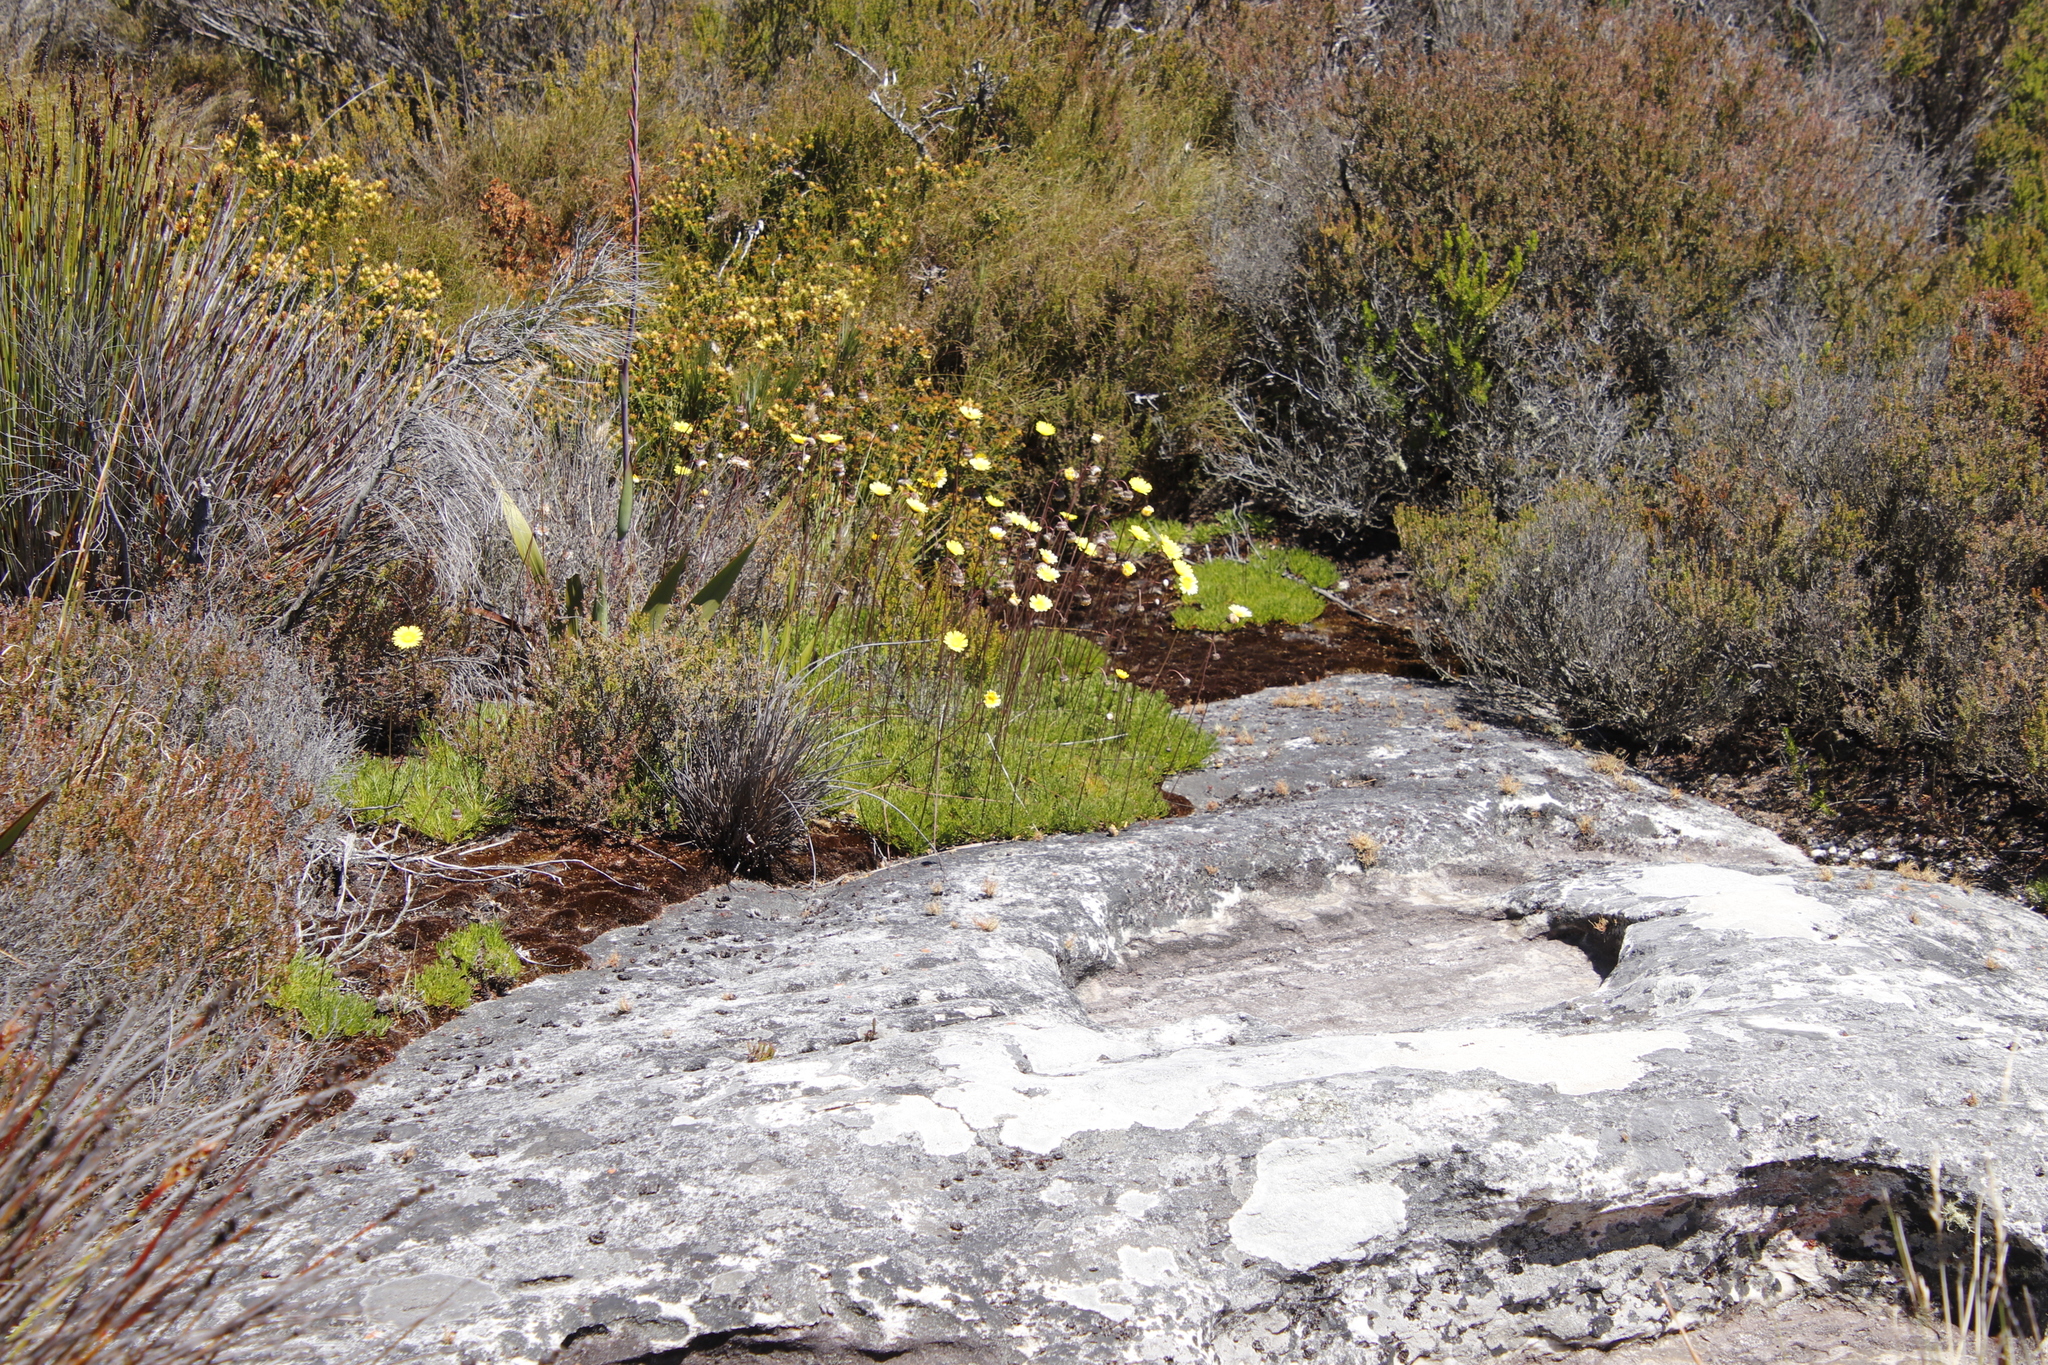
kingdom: Plantae
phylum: Tracheophyta
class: Magnoliopsida
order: Asterales
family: Asteraceae
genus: Ursinia
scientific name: Ursinia nudicaulis
